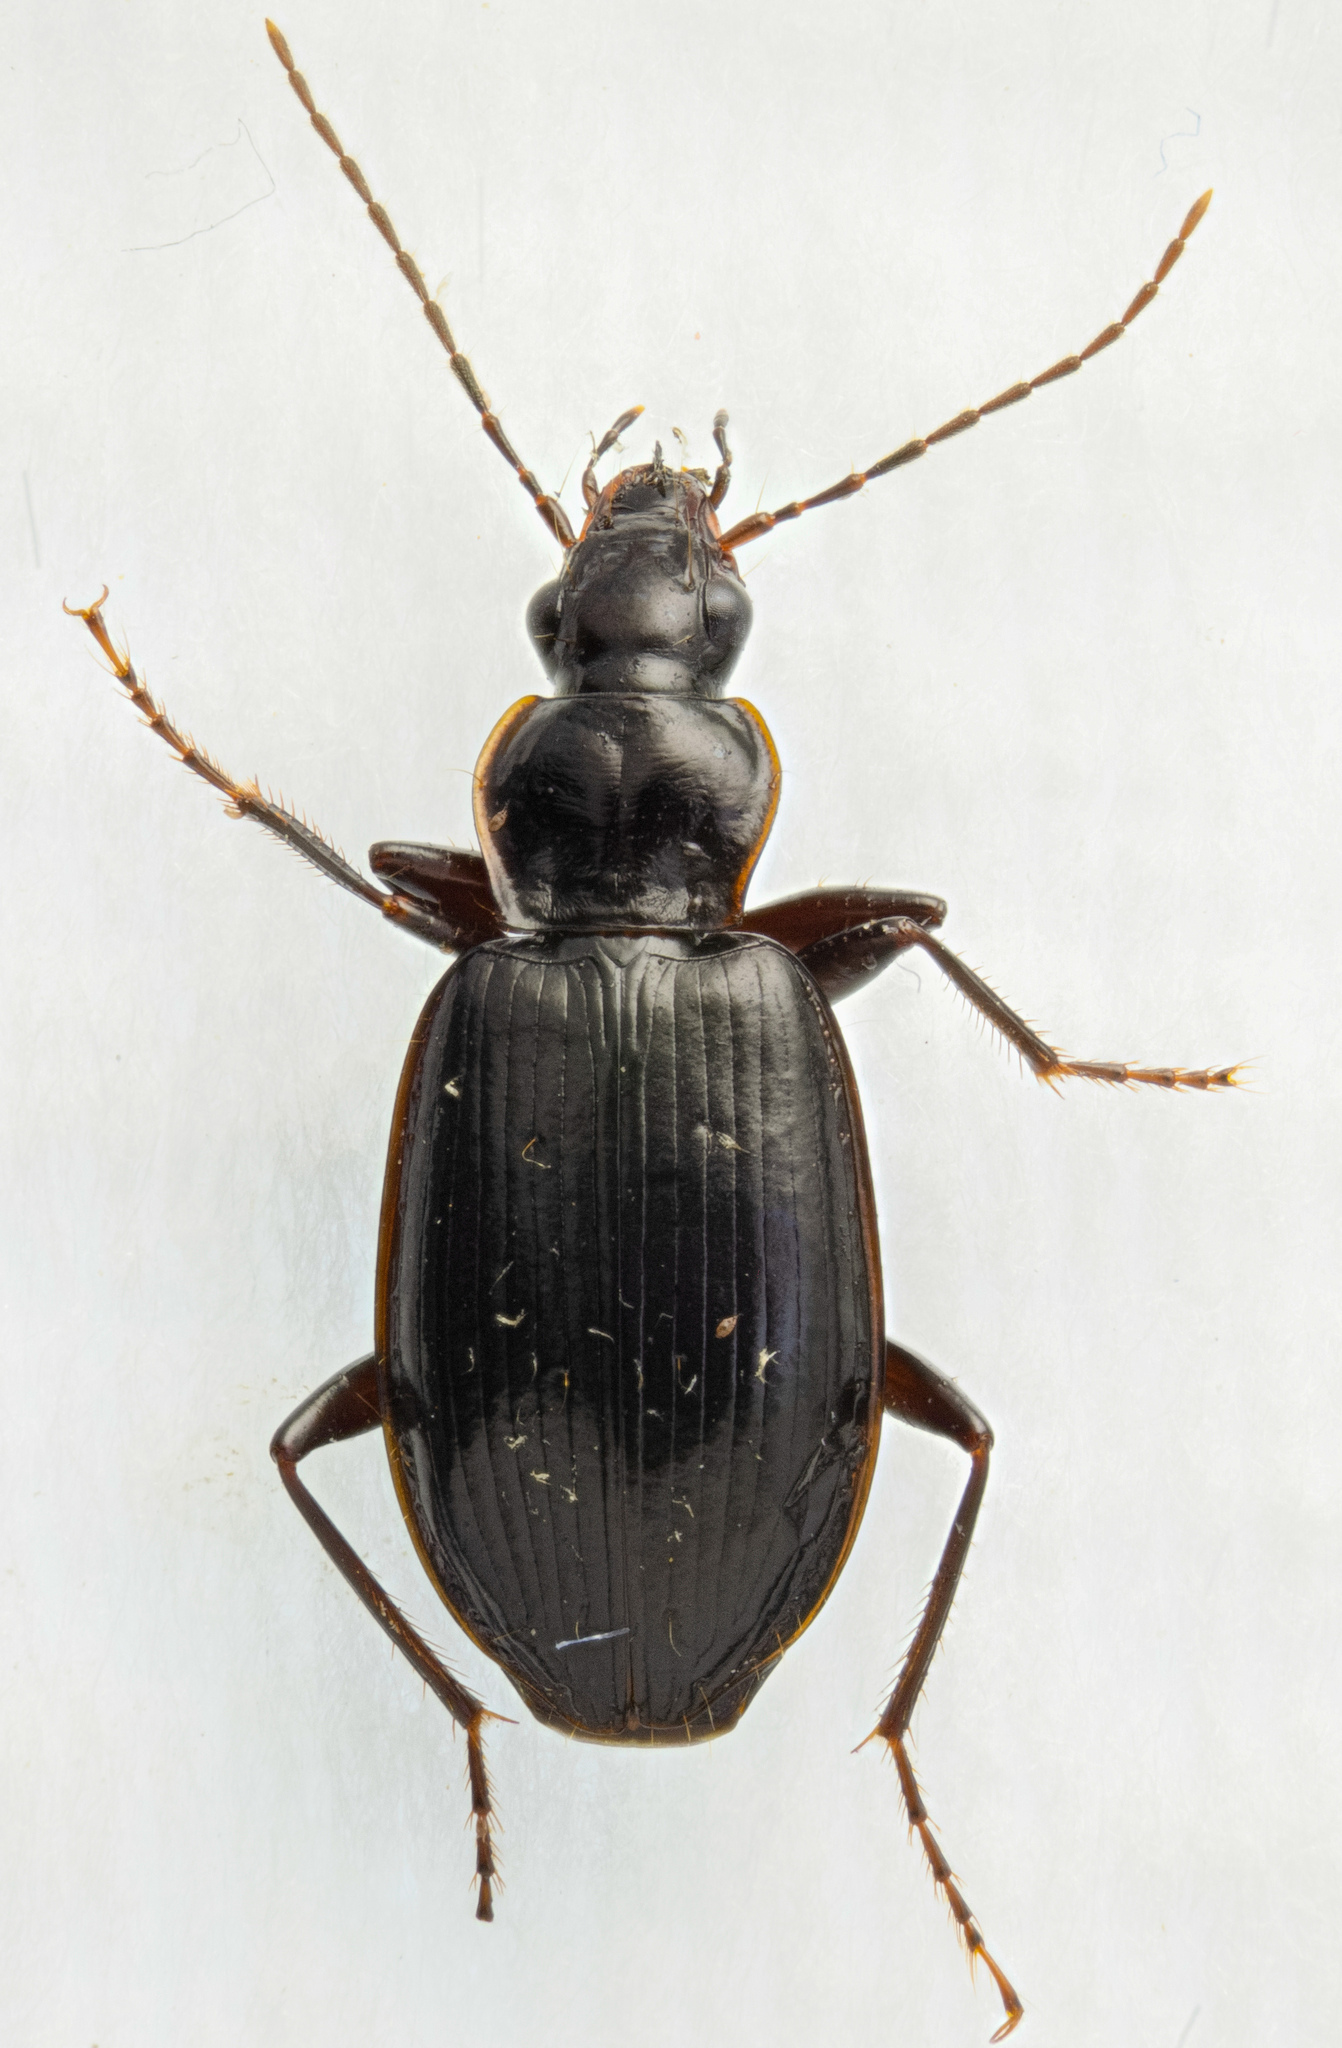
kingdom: Animalia
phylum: Arthropoda
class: Insecta
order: Coleoptera
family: Carabidae
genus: Platynus
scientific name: Platynus brunneomarginatus
